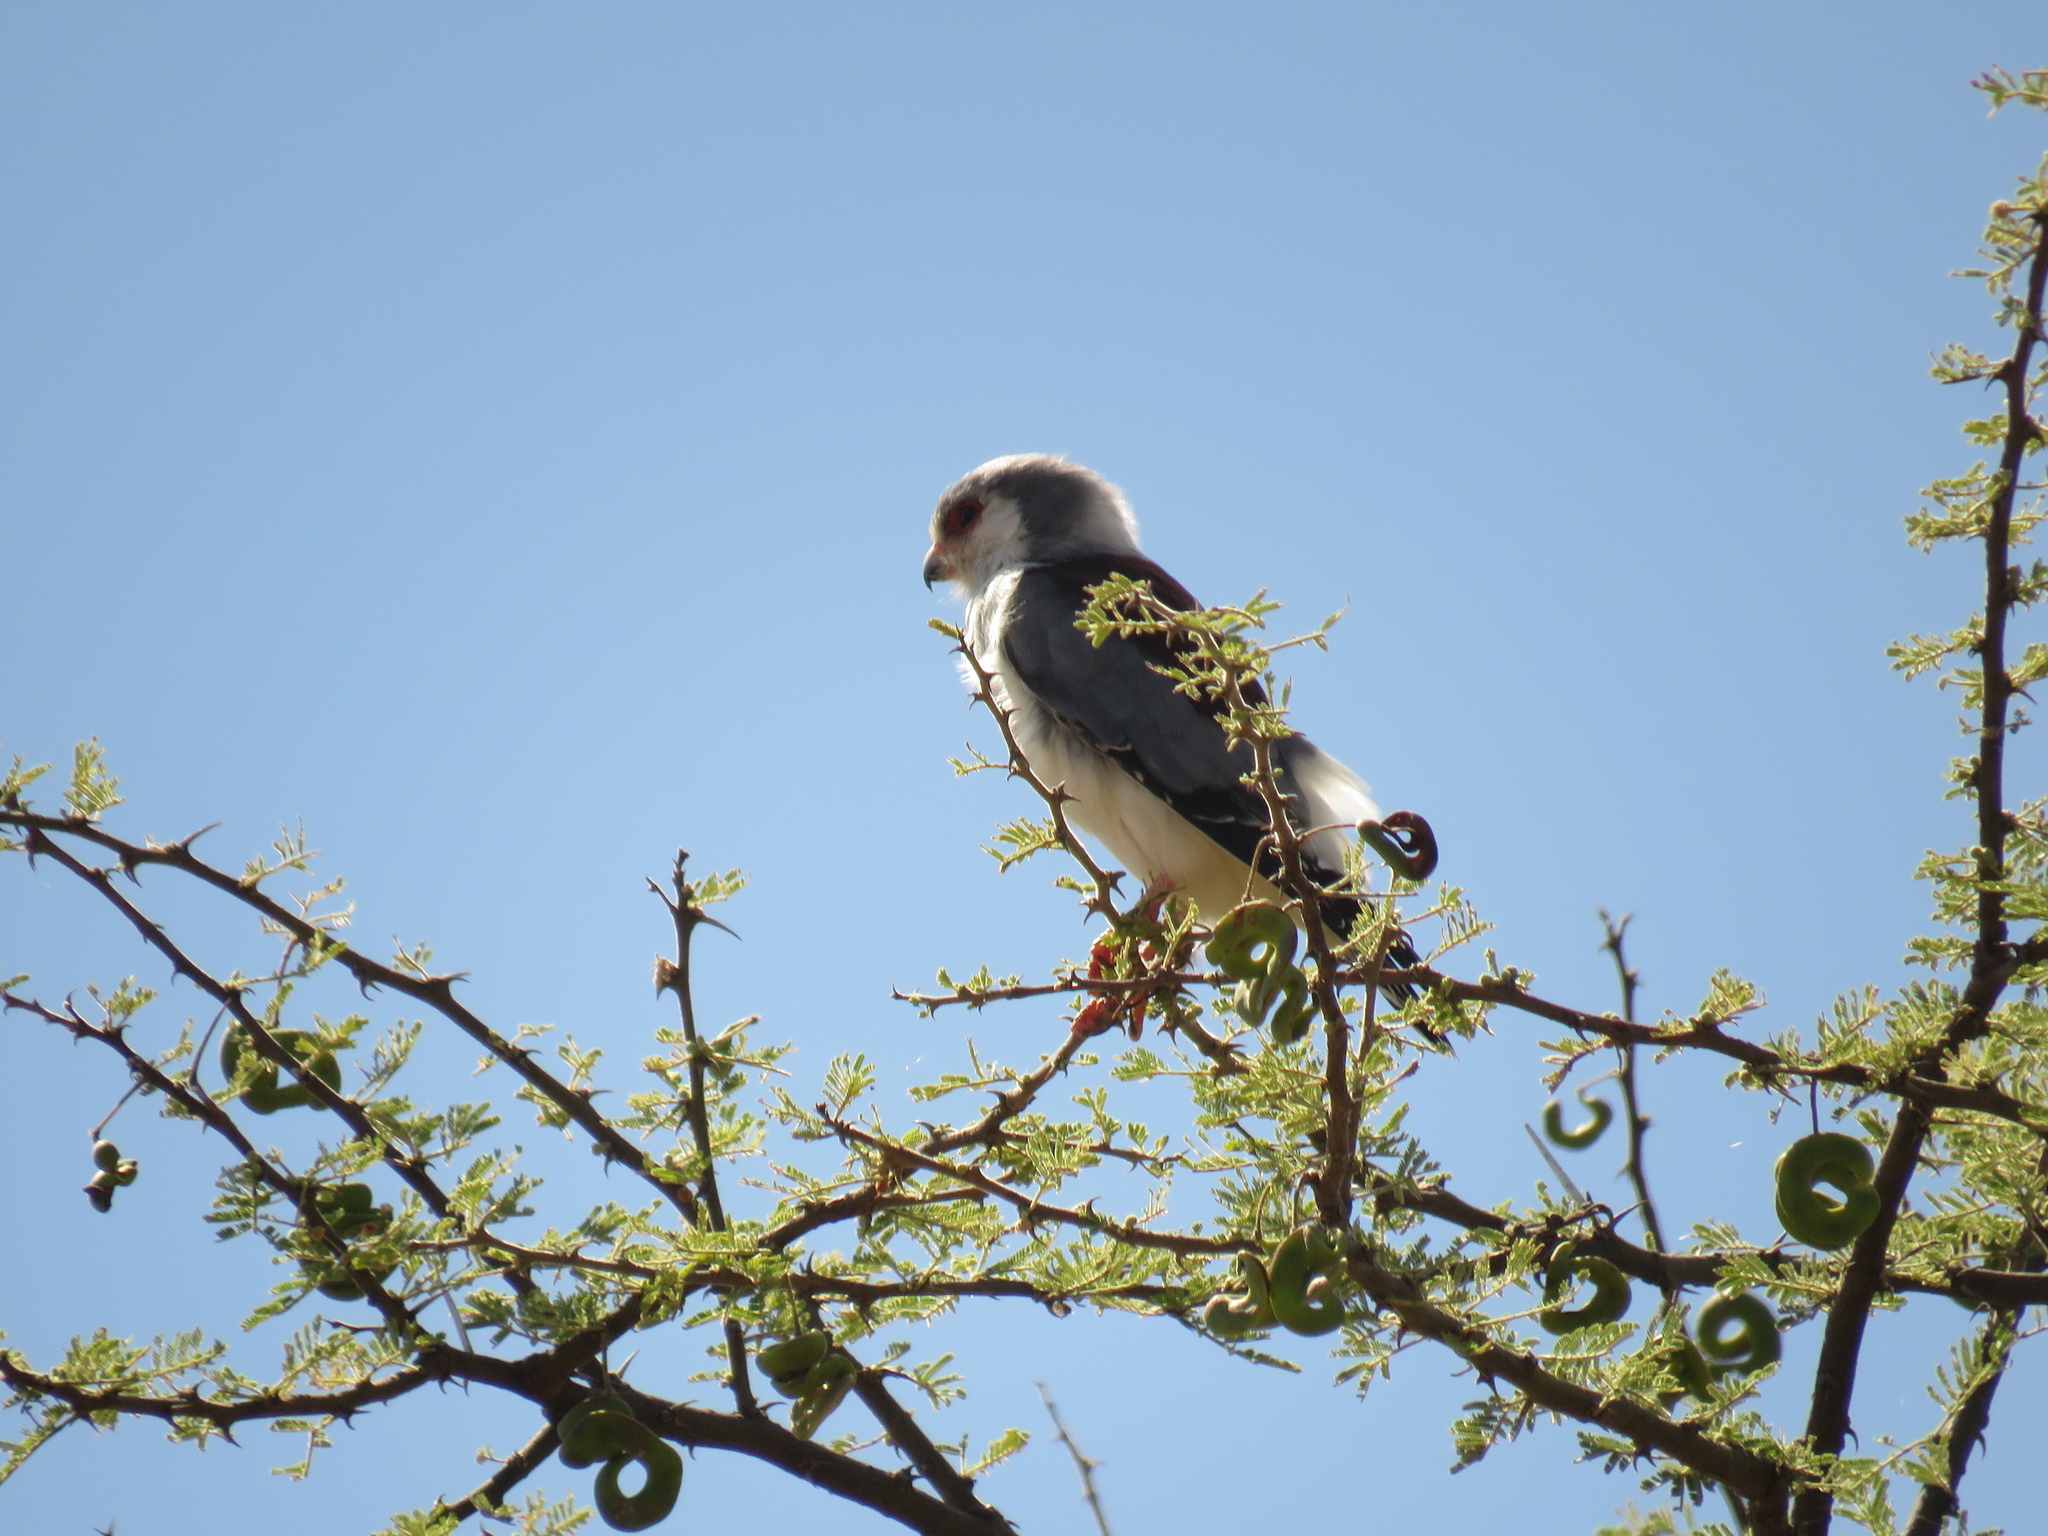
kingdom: Animalia
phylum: Chordata
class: Aves
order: Falconiformes
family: Falconidae
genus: Polihierax
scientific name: Polihierax semitorquatus
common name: Pygmy falcon
